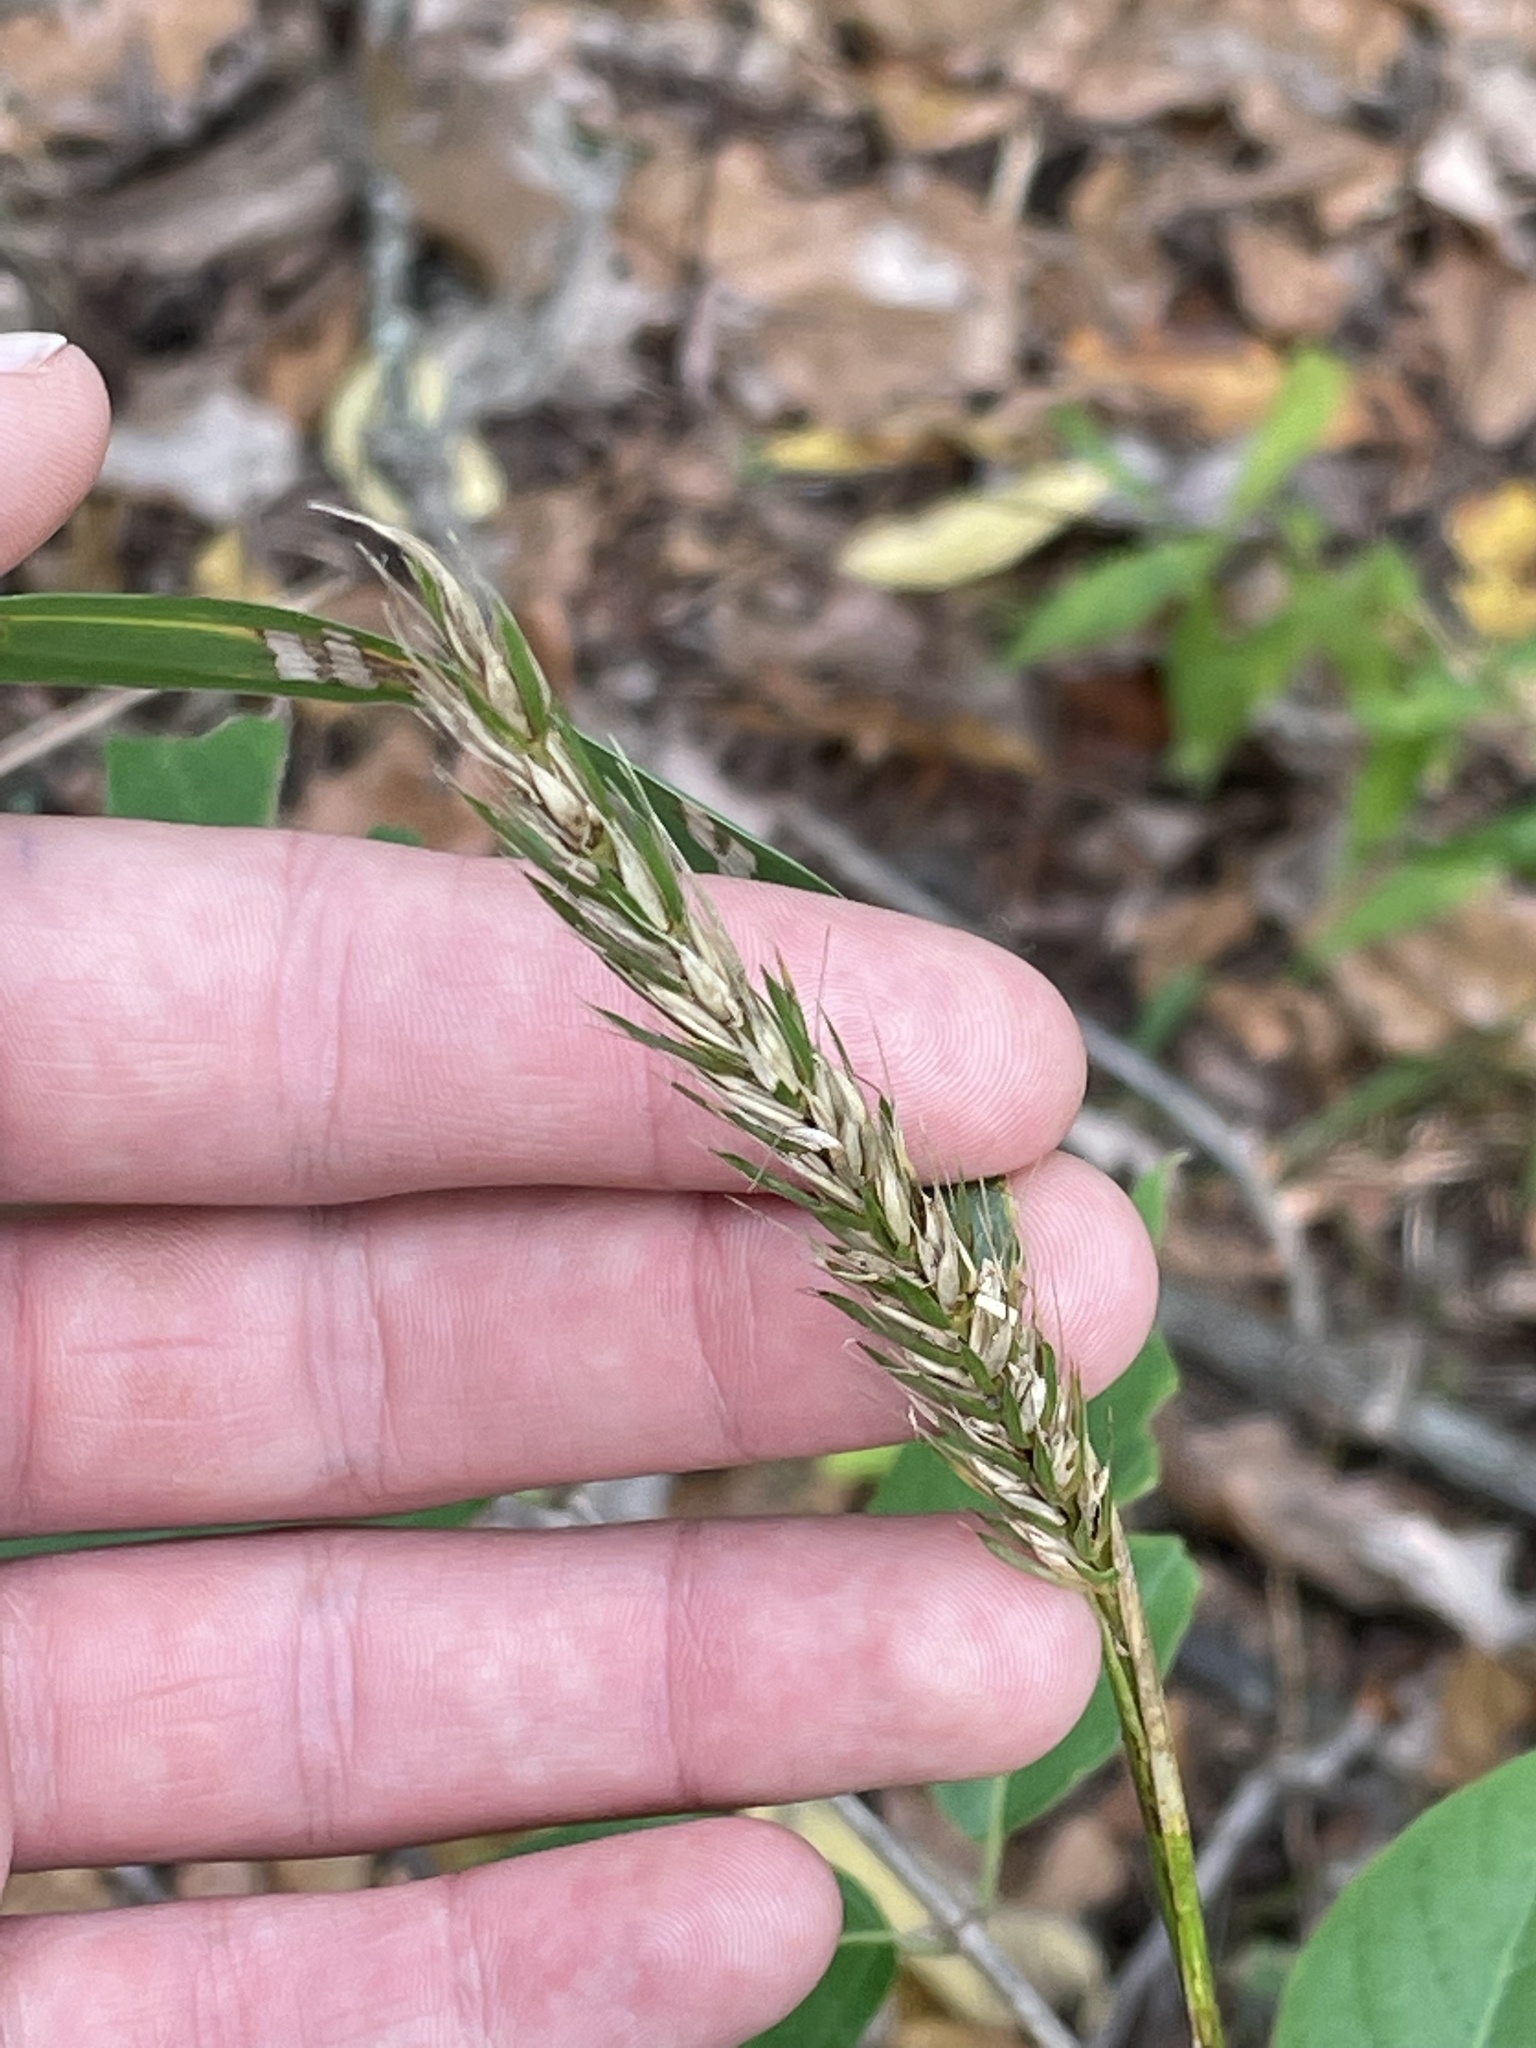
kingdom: Plantae
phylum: Tracheophyta
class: Liliopsida
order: Poales
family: Poaceae
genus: Elymus
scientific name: Elymus virginicus
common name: Common eastern wildrye
